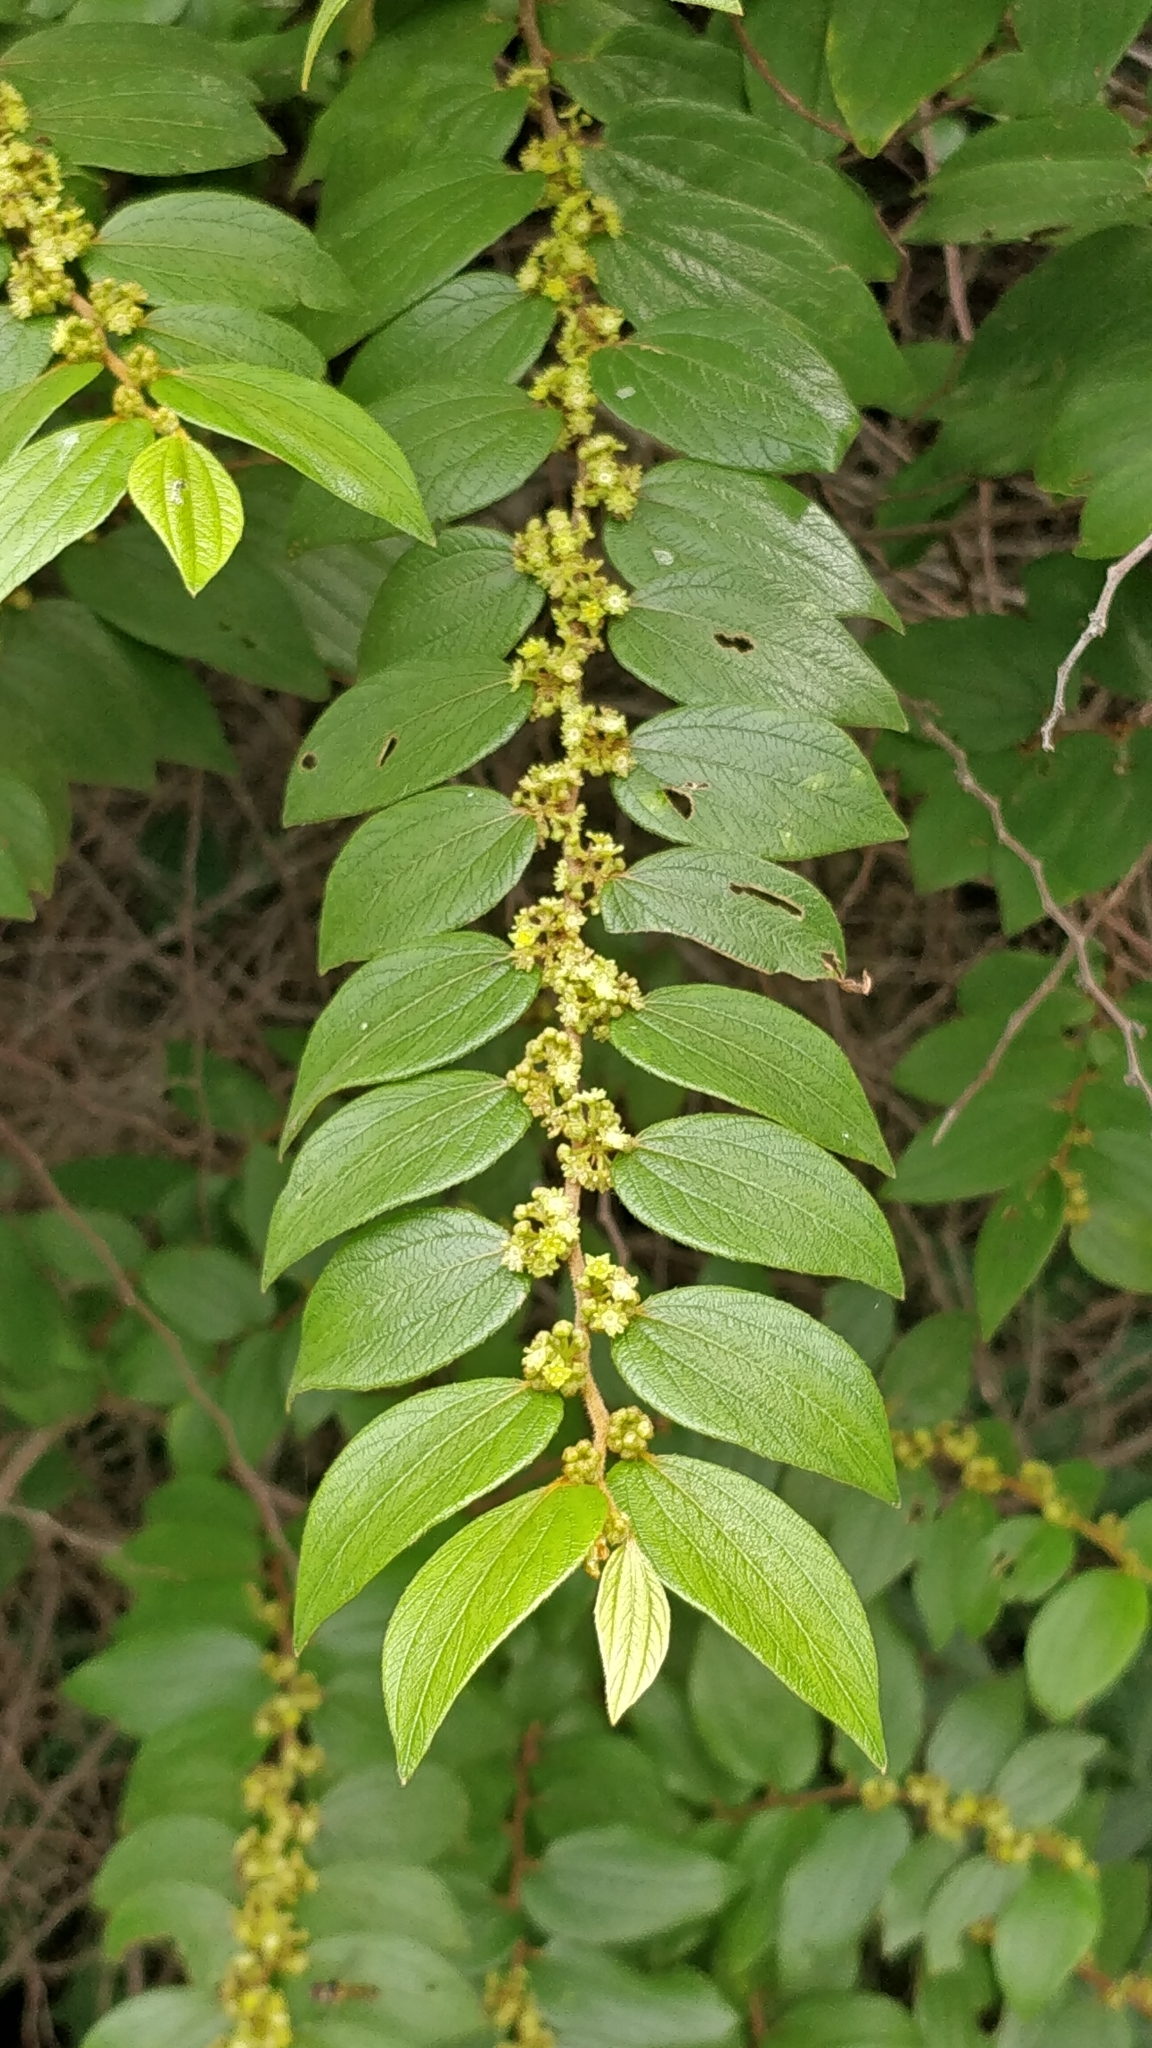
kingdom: Plantae
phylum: Tracheophyta
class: Magnoliopsida
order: Rosales
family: Rhamnaceae
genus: Ziziphus
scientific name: Ziziphus oenopolia
